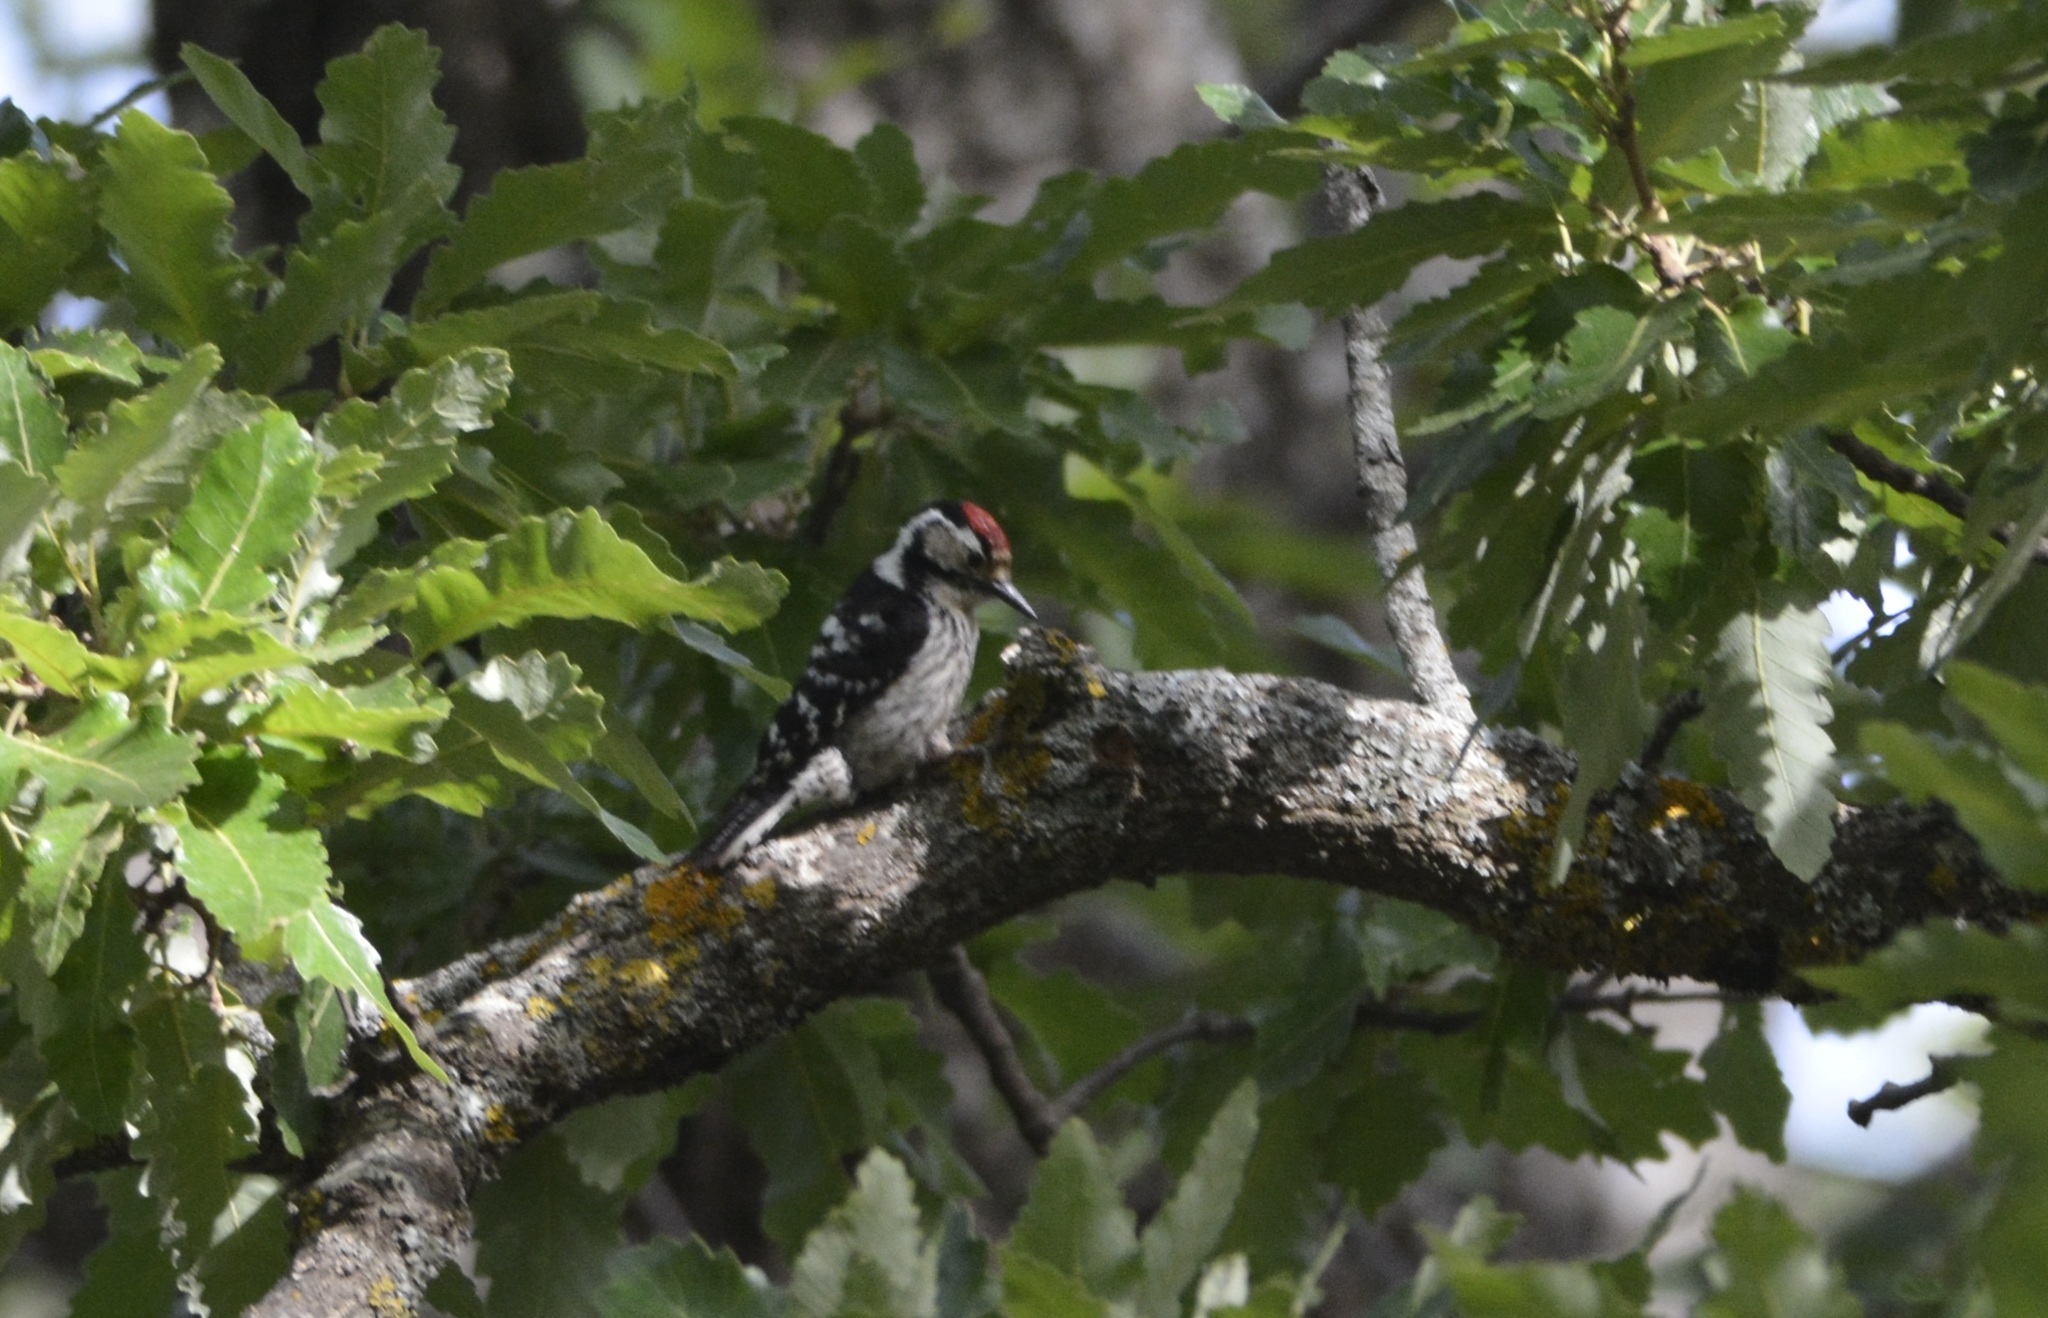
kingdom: Animalia
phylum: Chordata
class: Aves
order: Piciformes
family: Picidae
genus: Dryobates
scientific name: Dryobates minor
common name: Lesser spotted woodpecker
